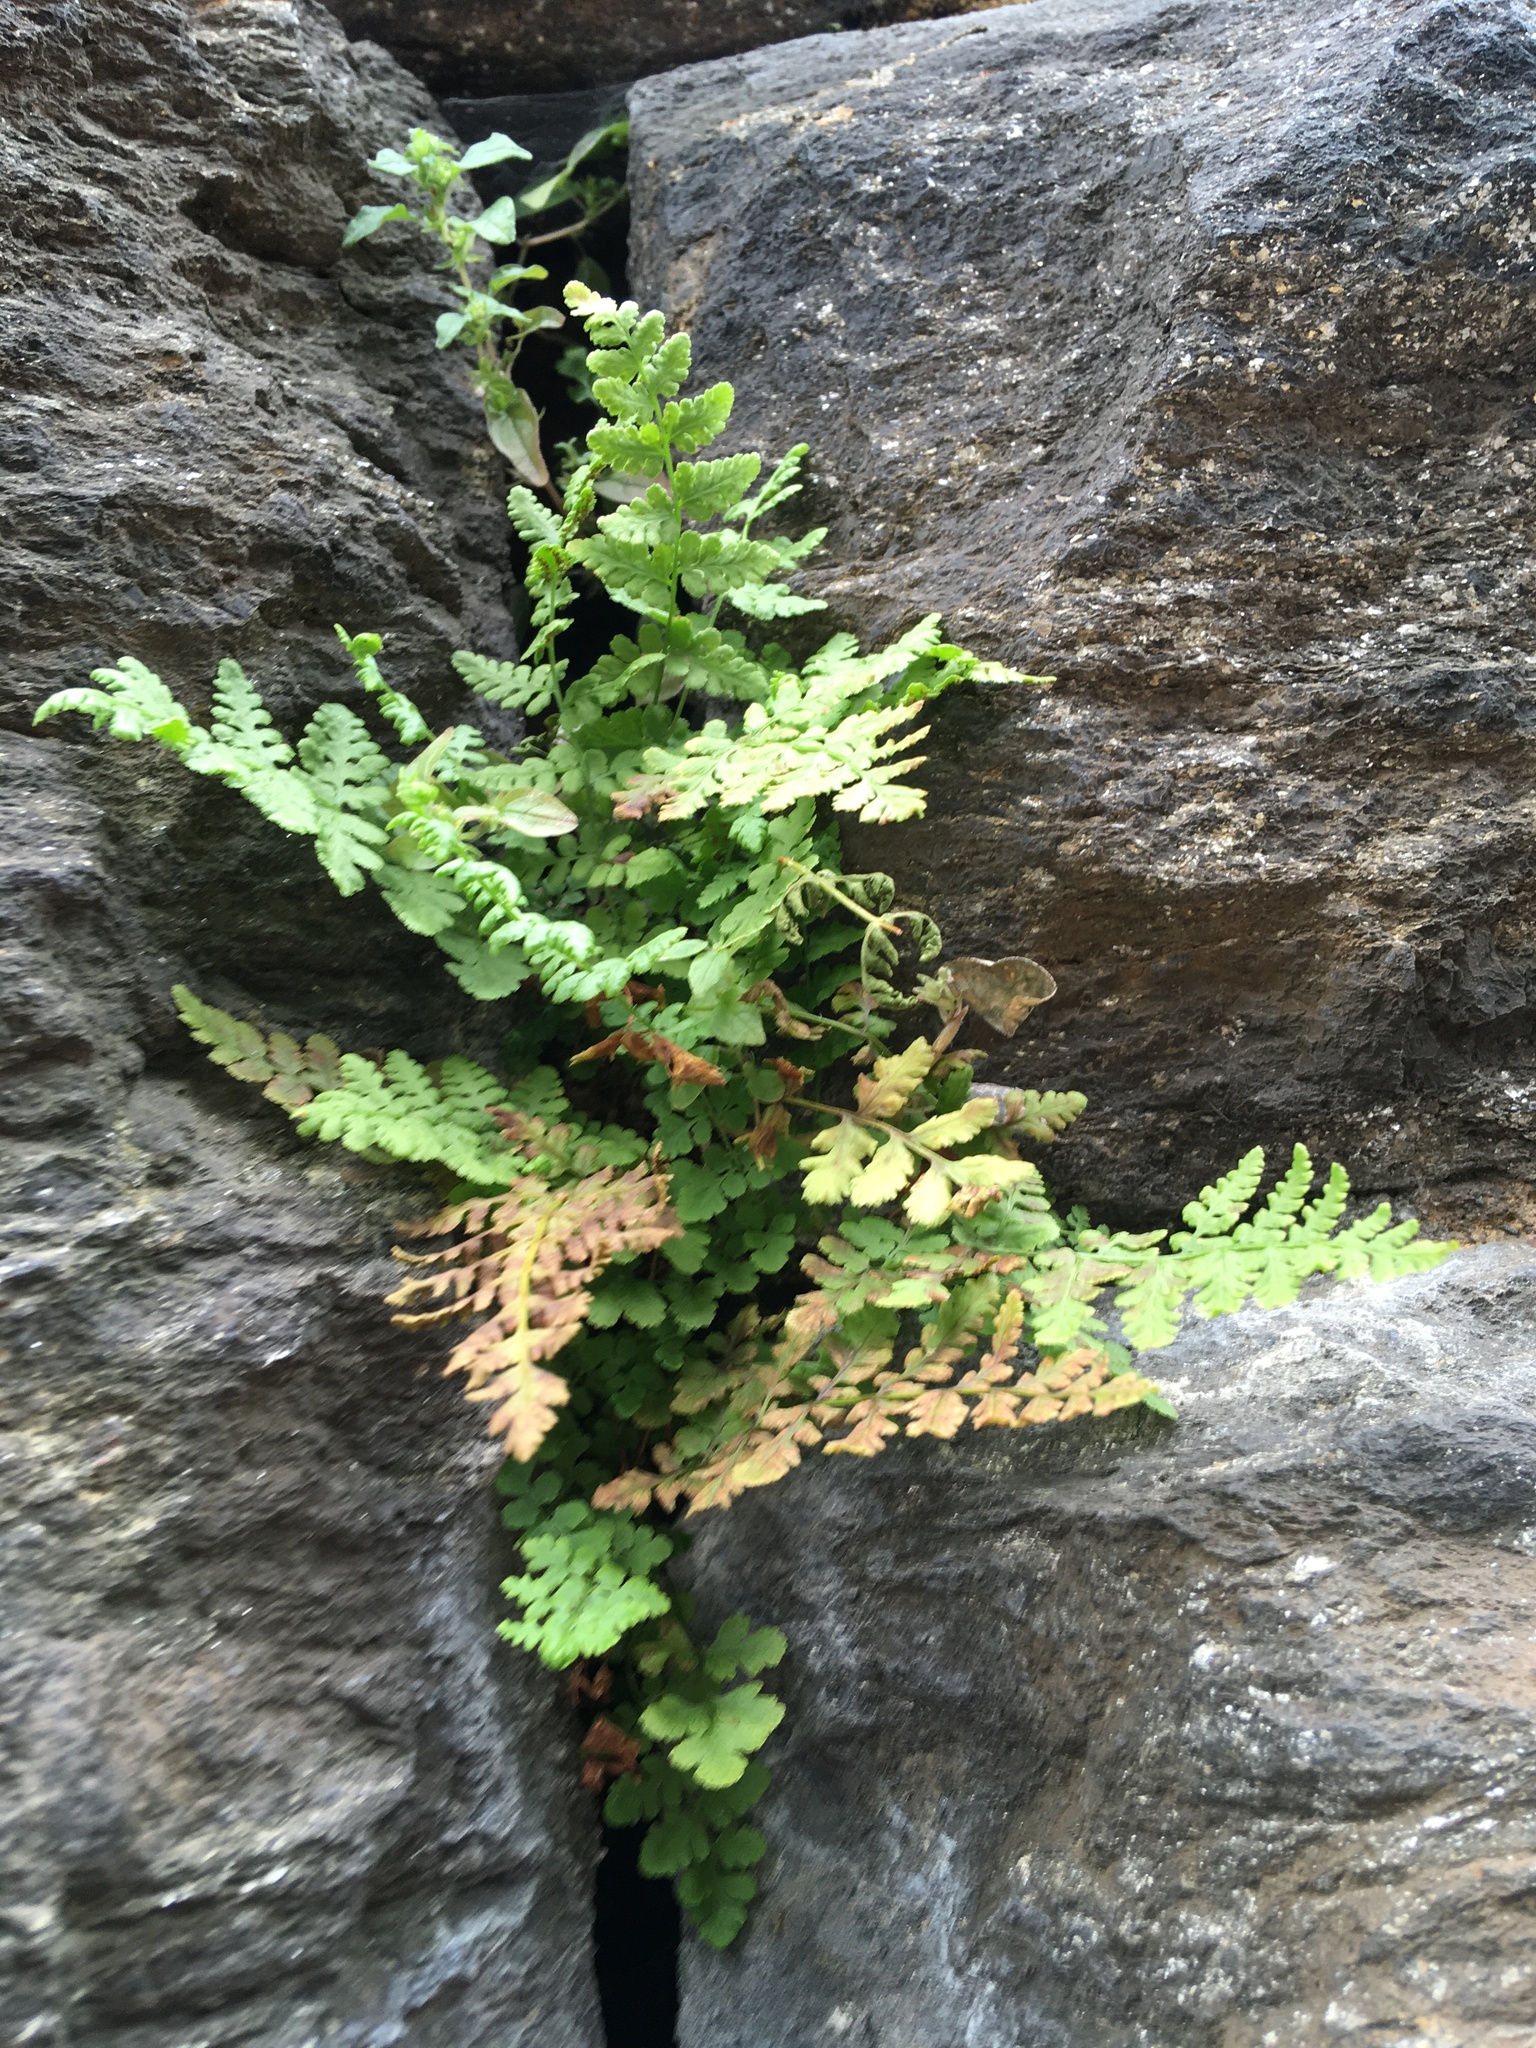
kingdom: Plantae
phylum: Tracheophyta
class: Polypodiopsida
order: Polypodiales
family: Woodsiaceae
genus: Physematium
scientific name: Physematium obtusum
